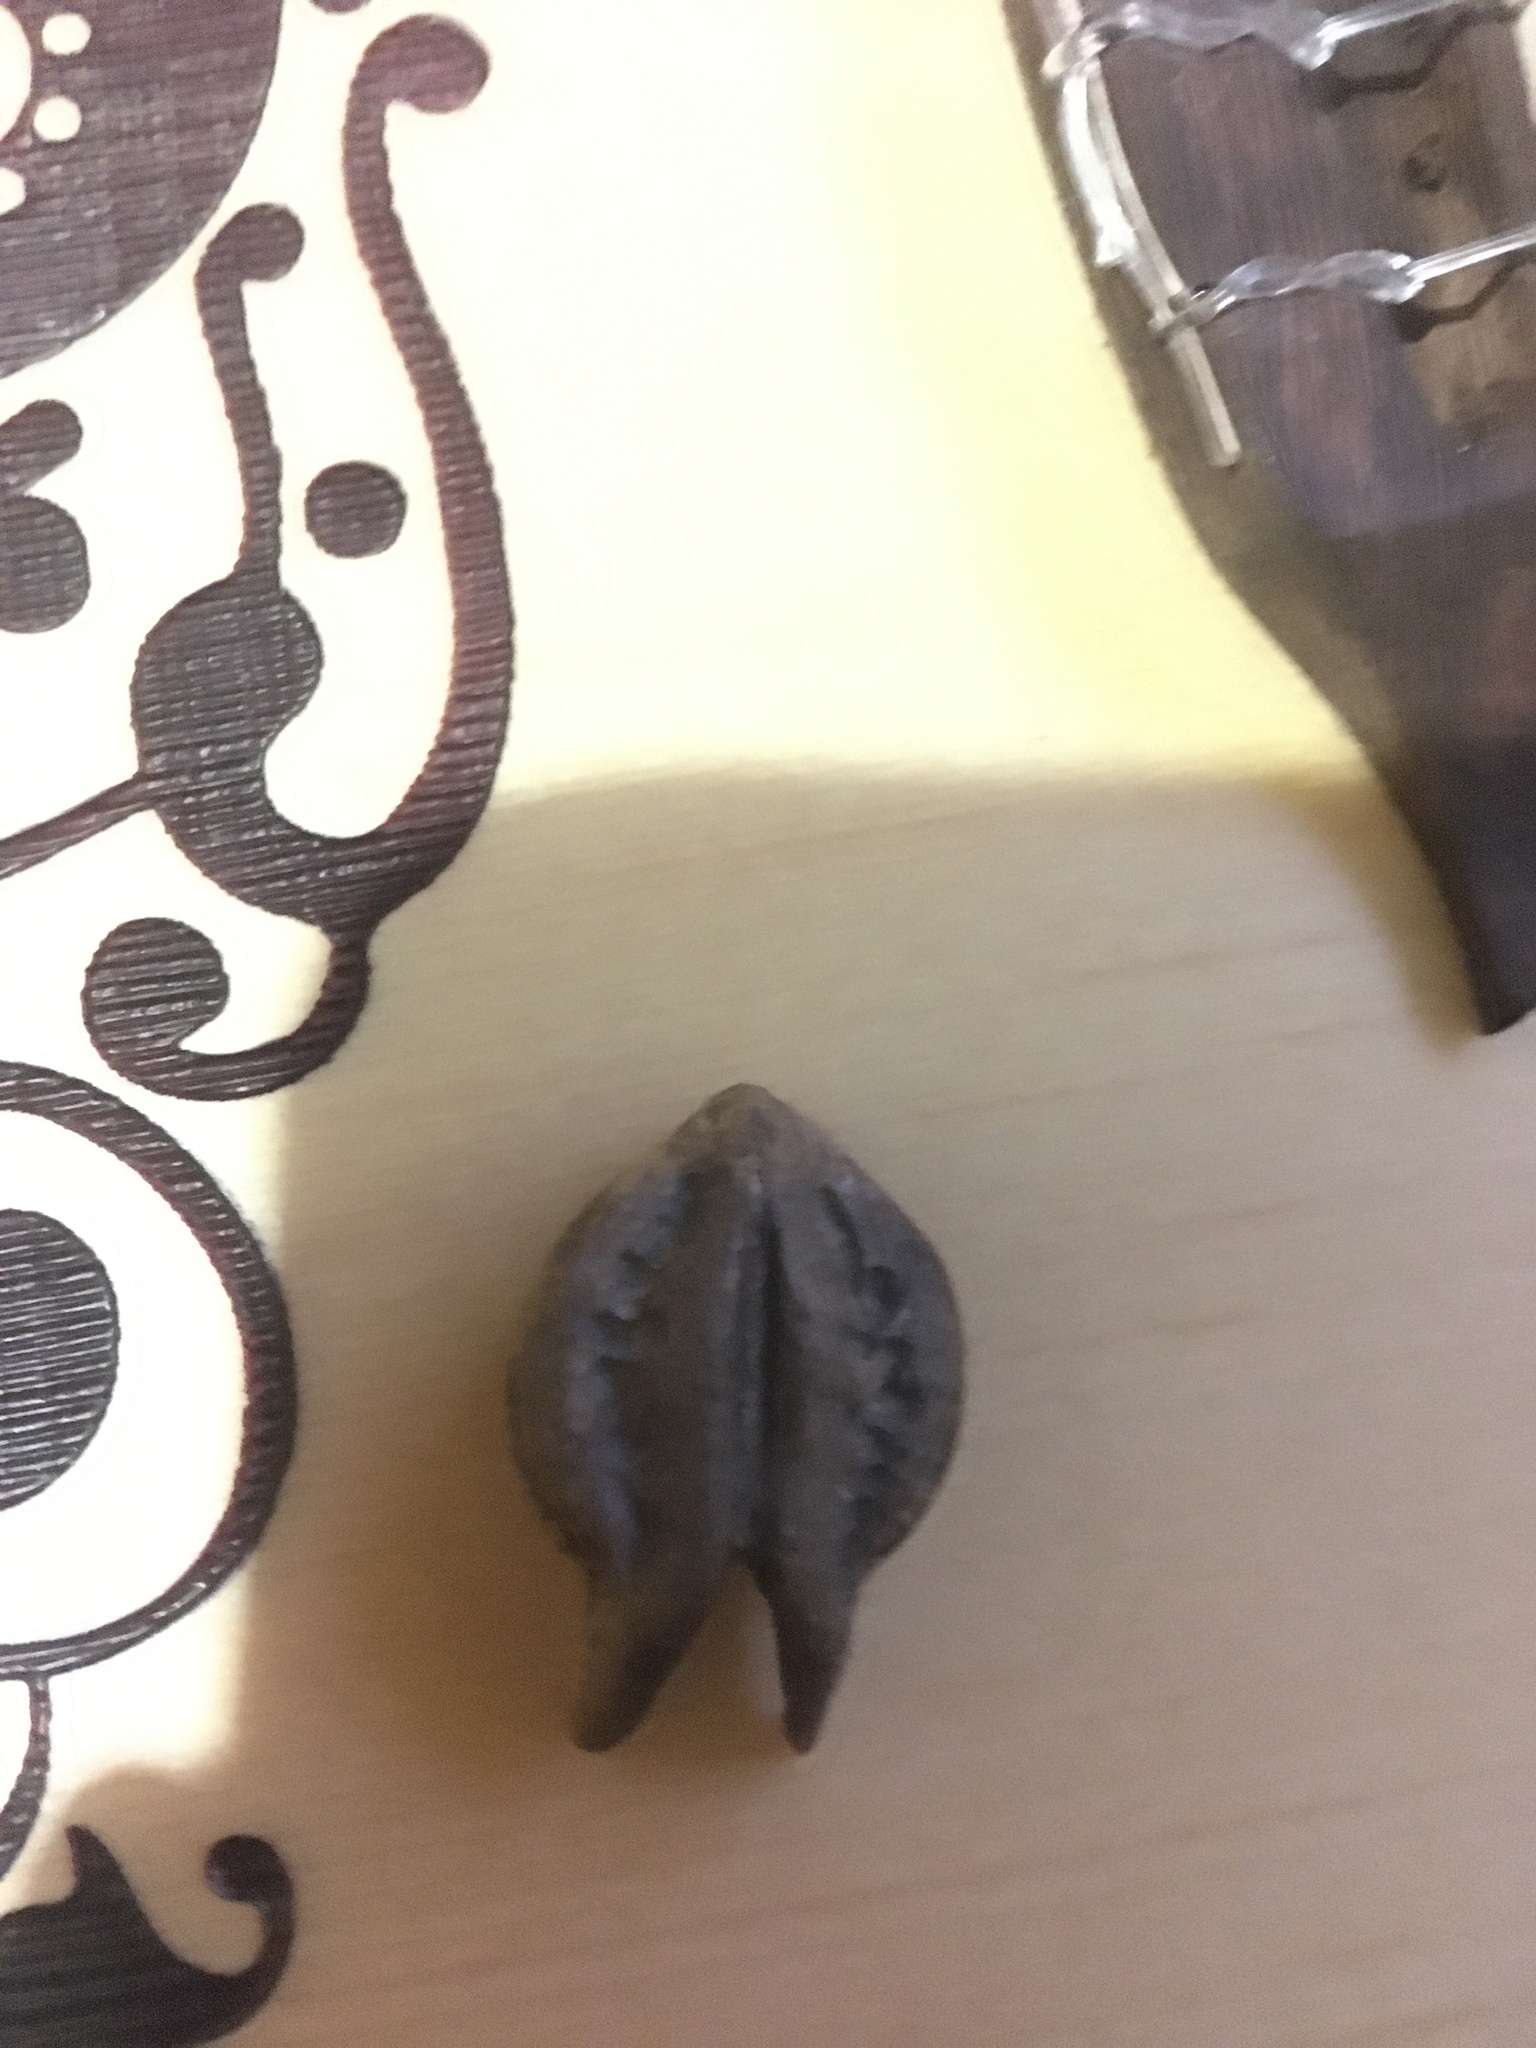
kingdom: Plantae
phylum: Tracheophyta
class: Magnoliopsida
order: Lamiales
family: Martyniaceae
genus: Martynia
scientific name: Martynia annua
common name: Tiger's-claw
